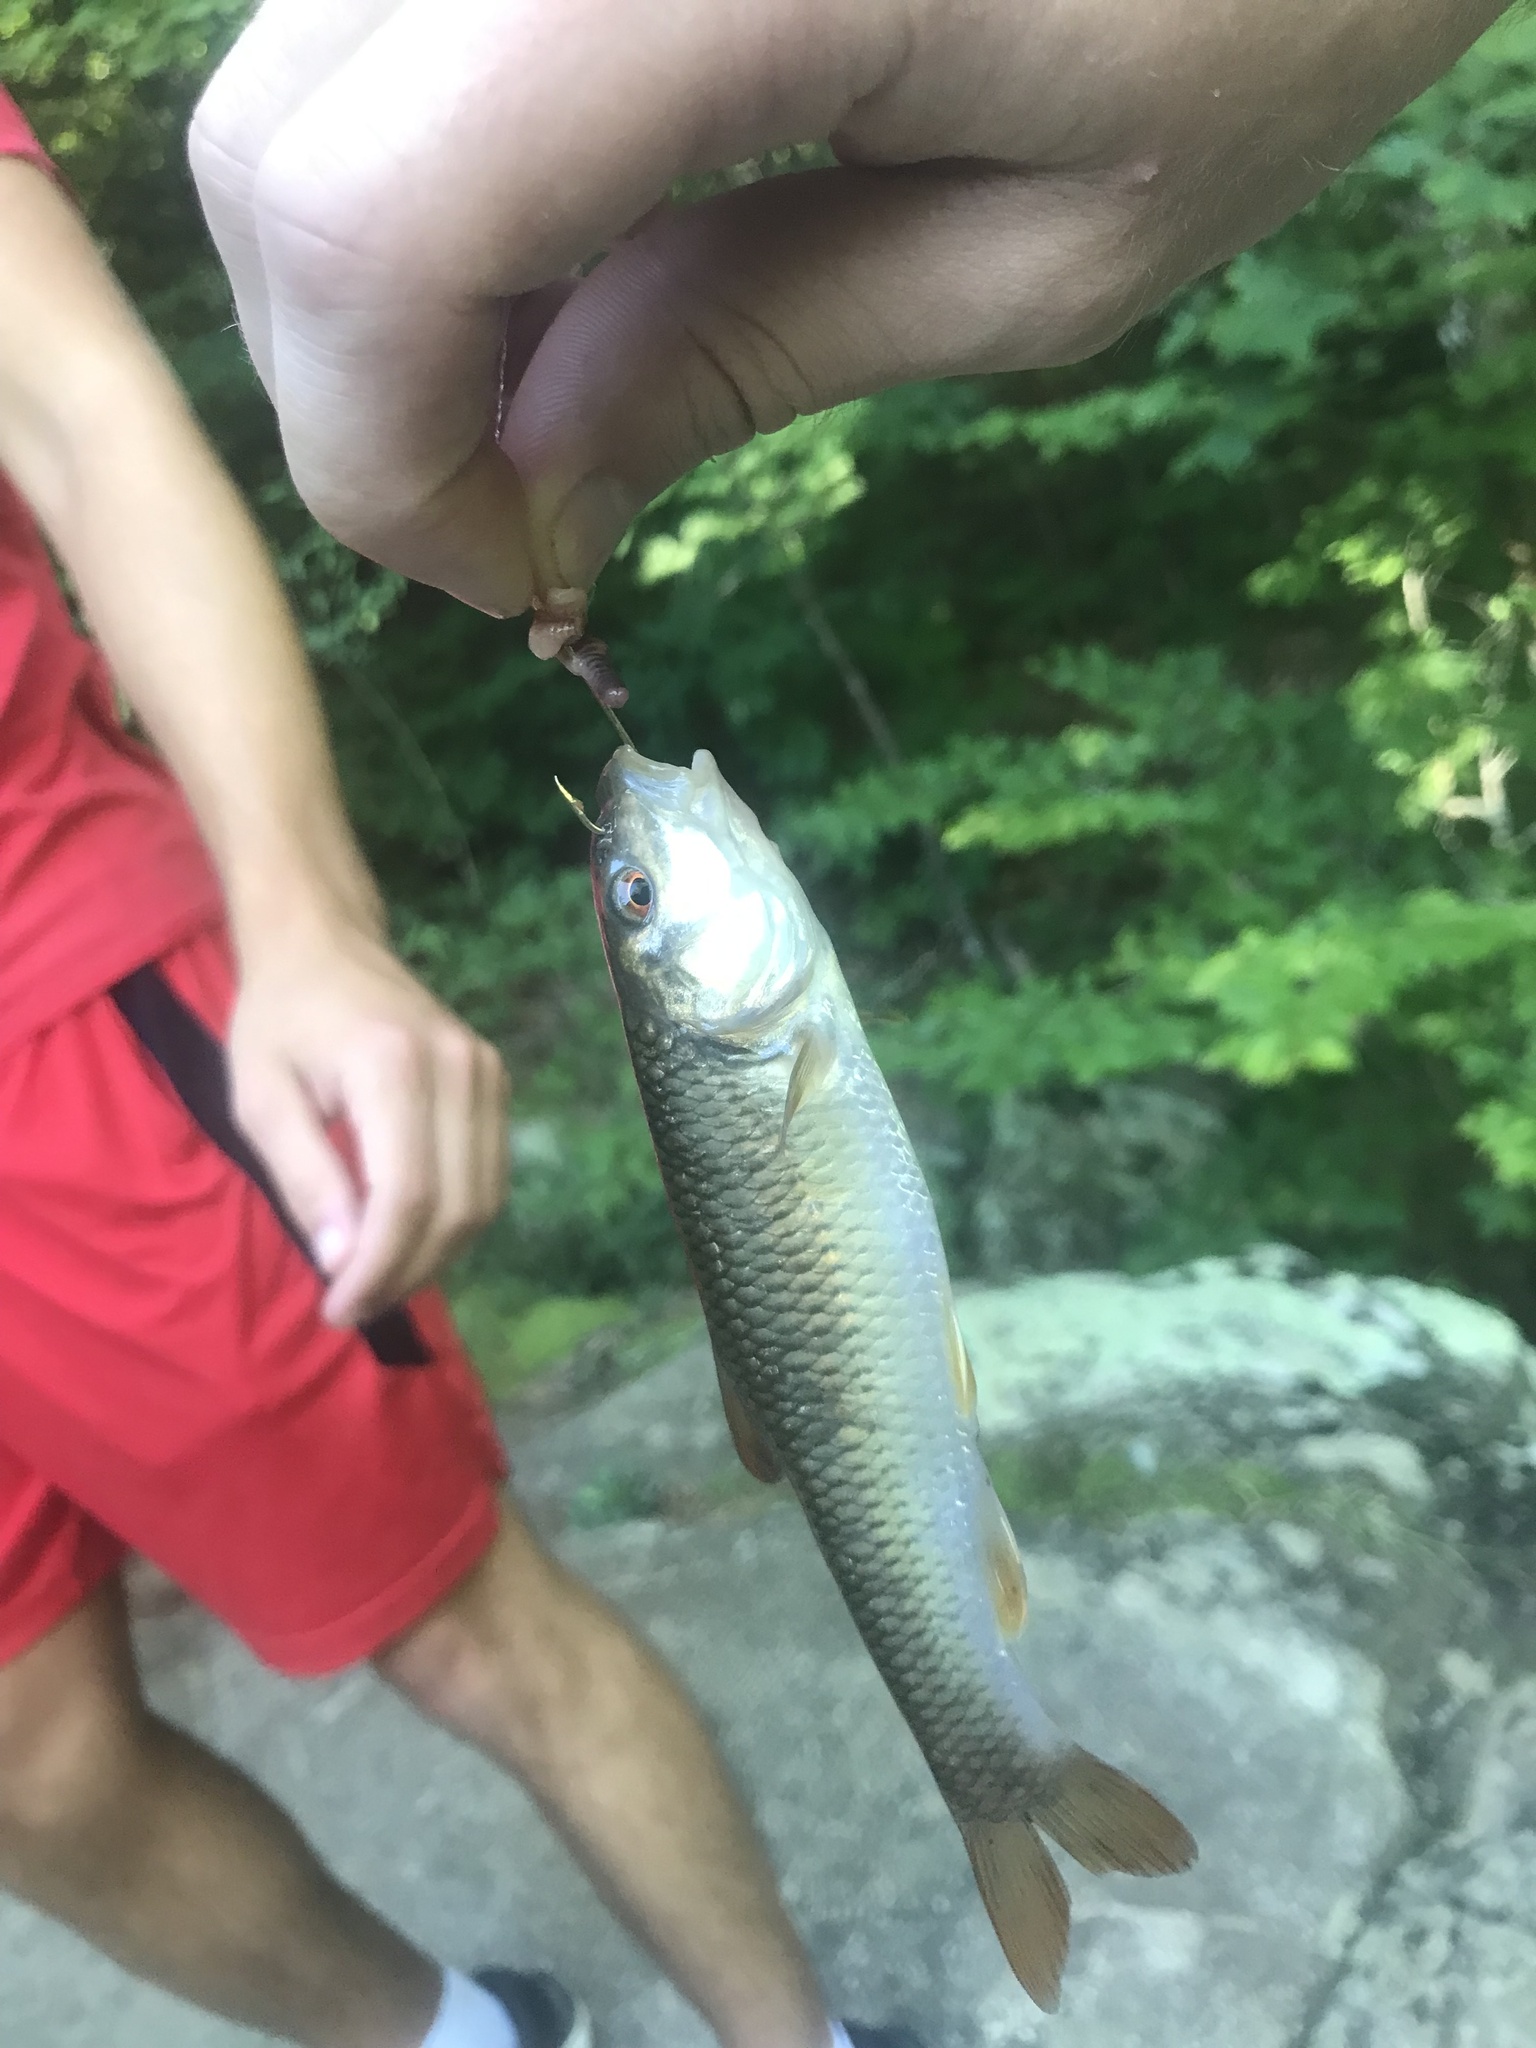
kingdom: Animalia
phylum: Chordata
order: Cypriniformes
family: Cyprinidae
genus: Nocomis
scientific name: Nocomis leptocephalus
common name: Bluehead chub
